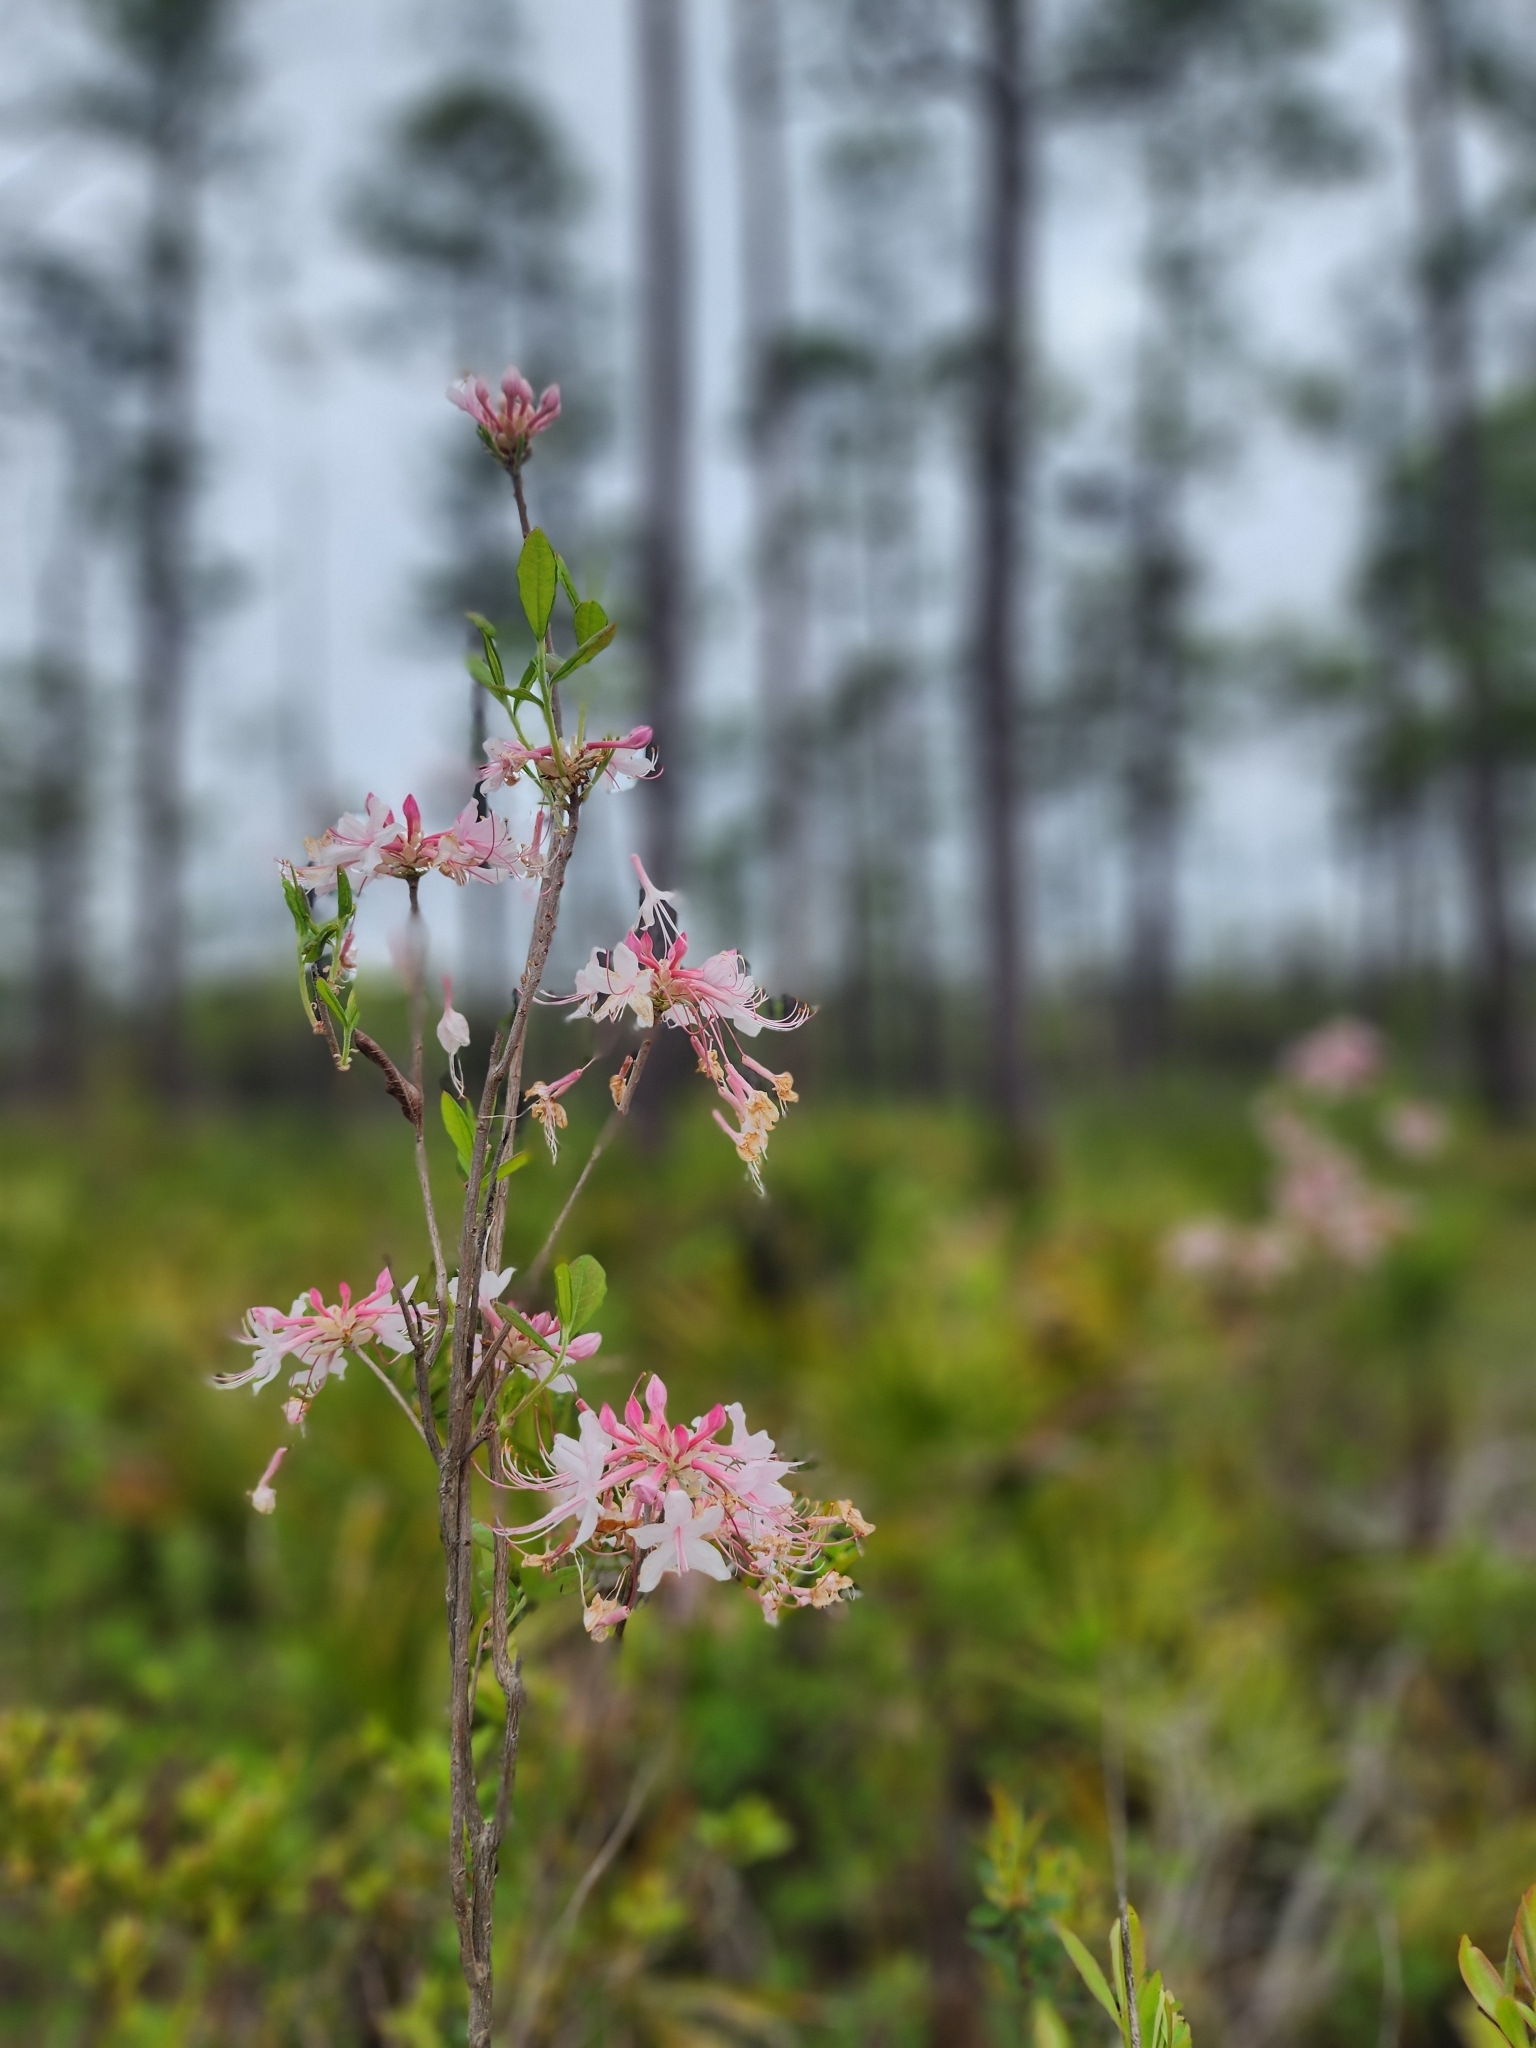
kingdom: Plantae
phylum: Tracheophyta
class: Magnoliopsida
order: Ericales
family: Ericaceae
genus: Rhododendron
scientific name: Rhododendron canescens
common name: Mountain azalea
